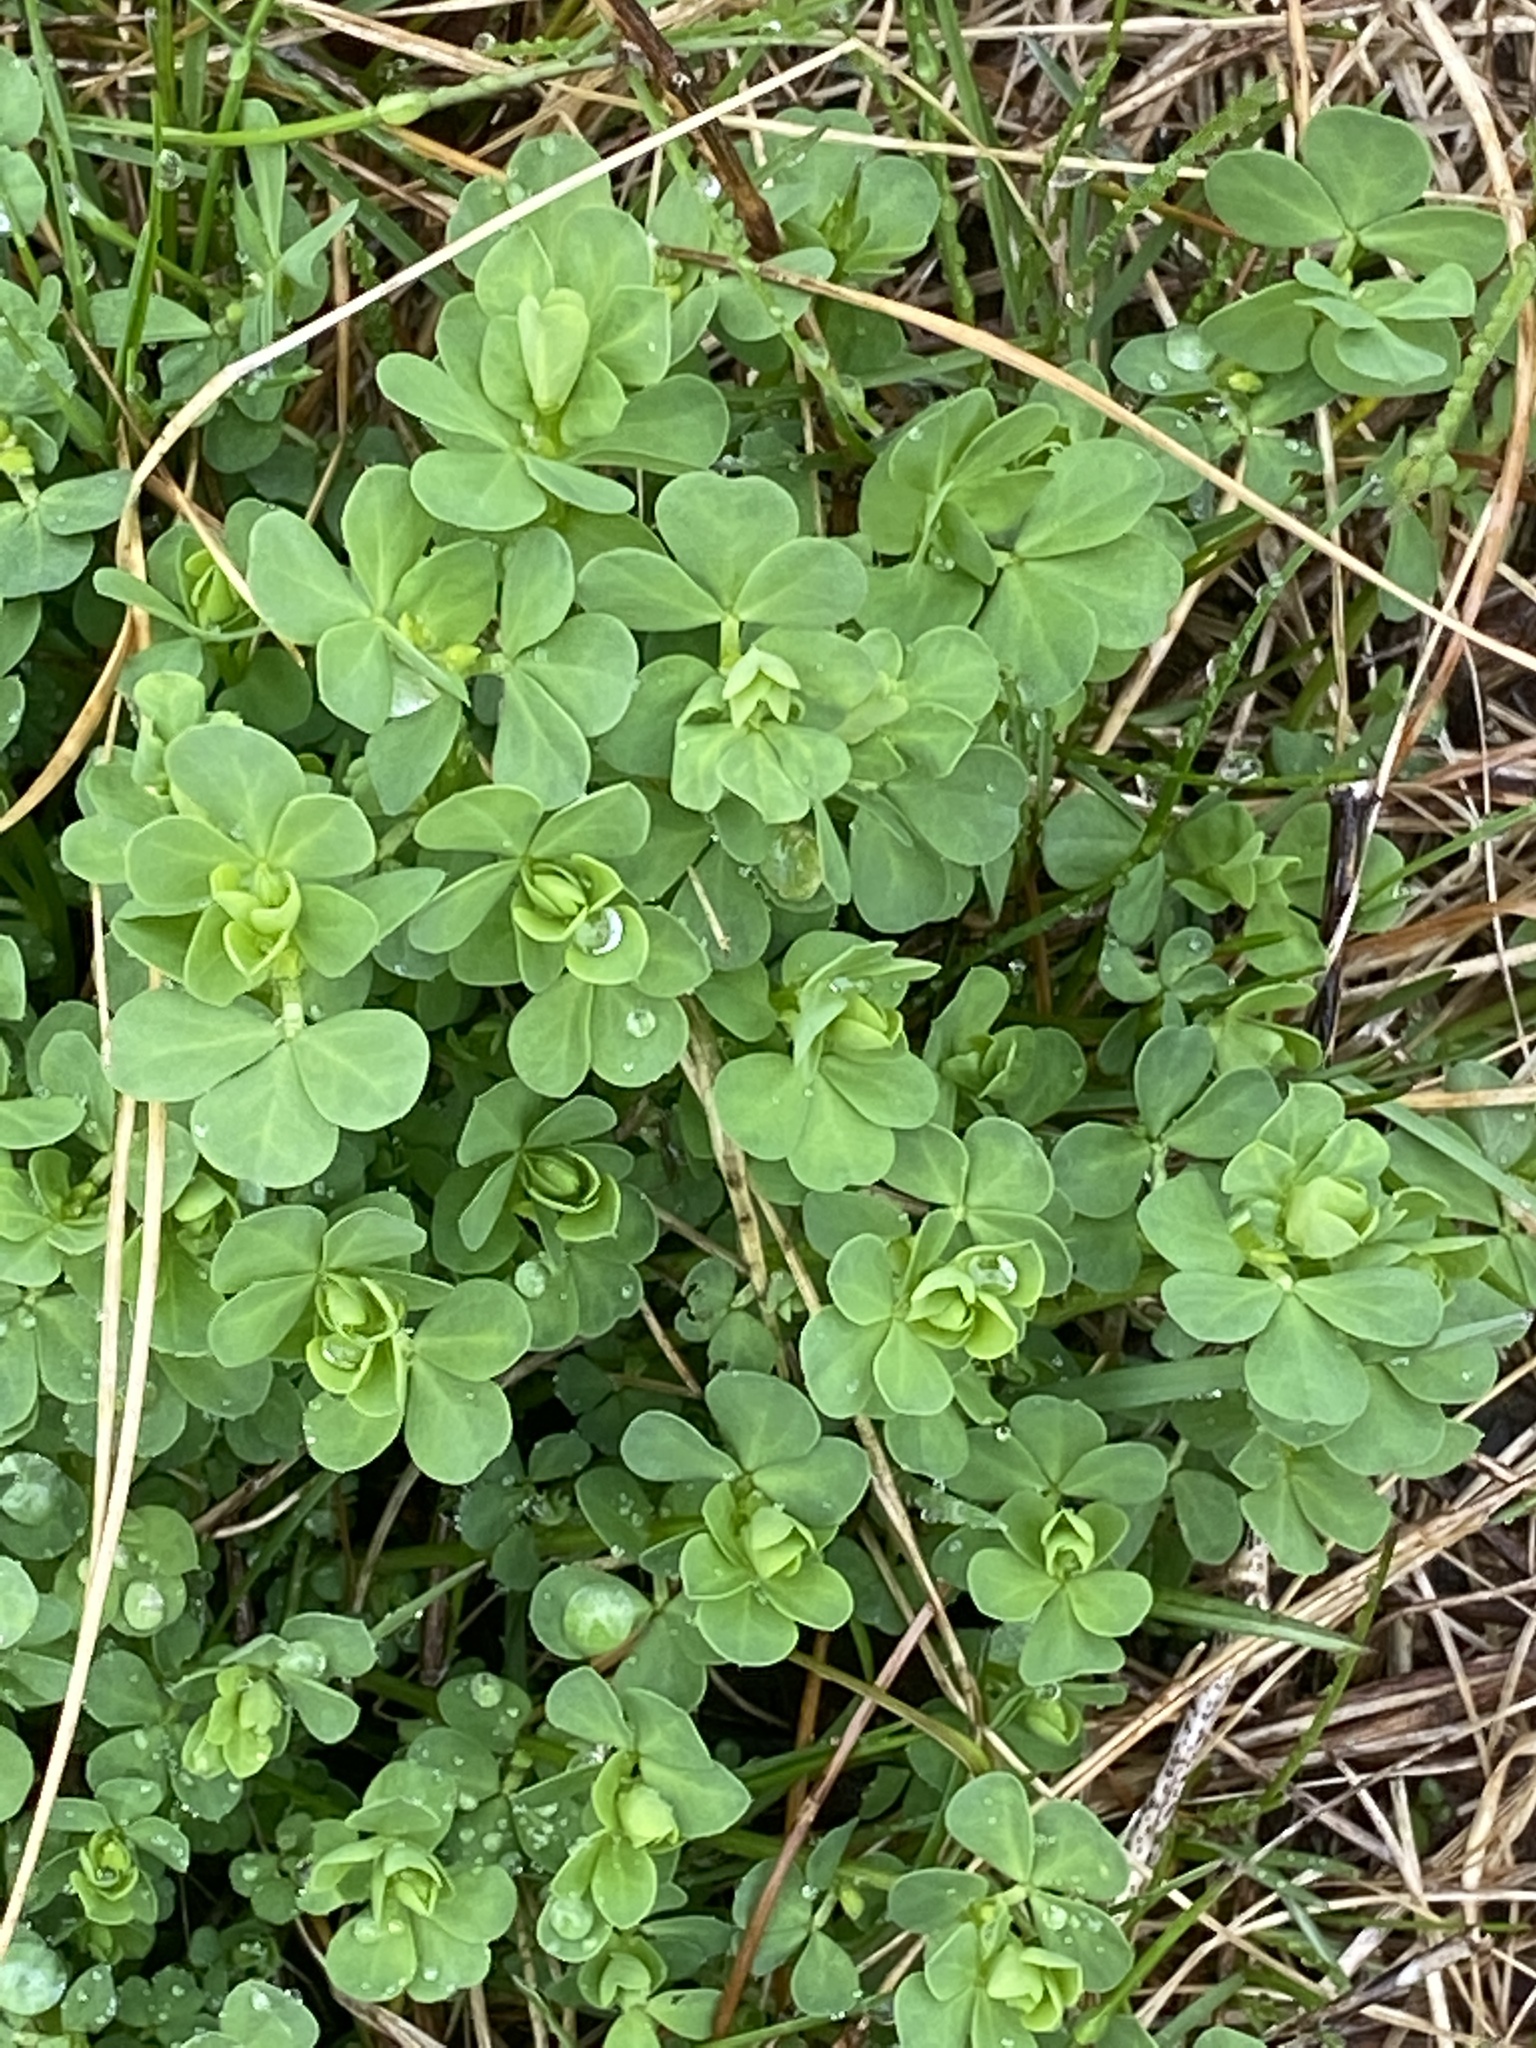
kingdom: Plantae
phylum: Tracheophyta
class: Magnoliopsida
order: Fabales
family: Fabaceae
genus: Lotus
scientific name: Lotus corniculatus
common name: Common bird's-foot-trefoil
